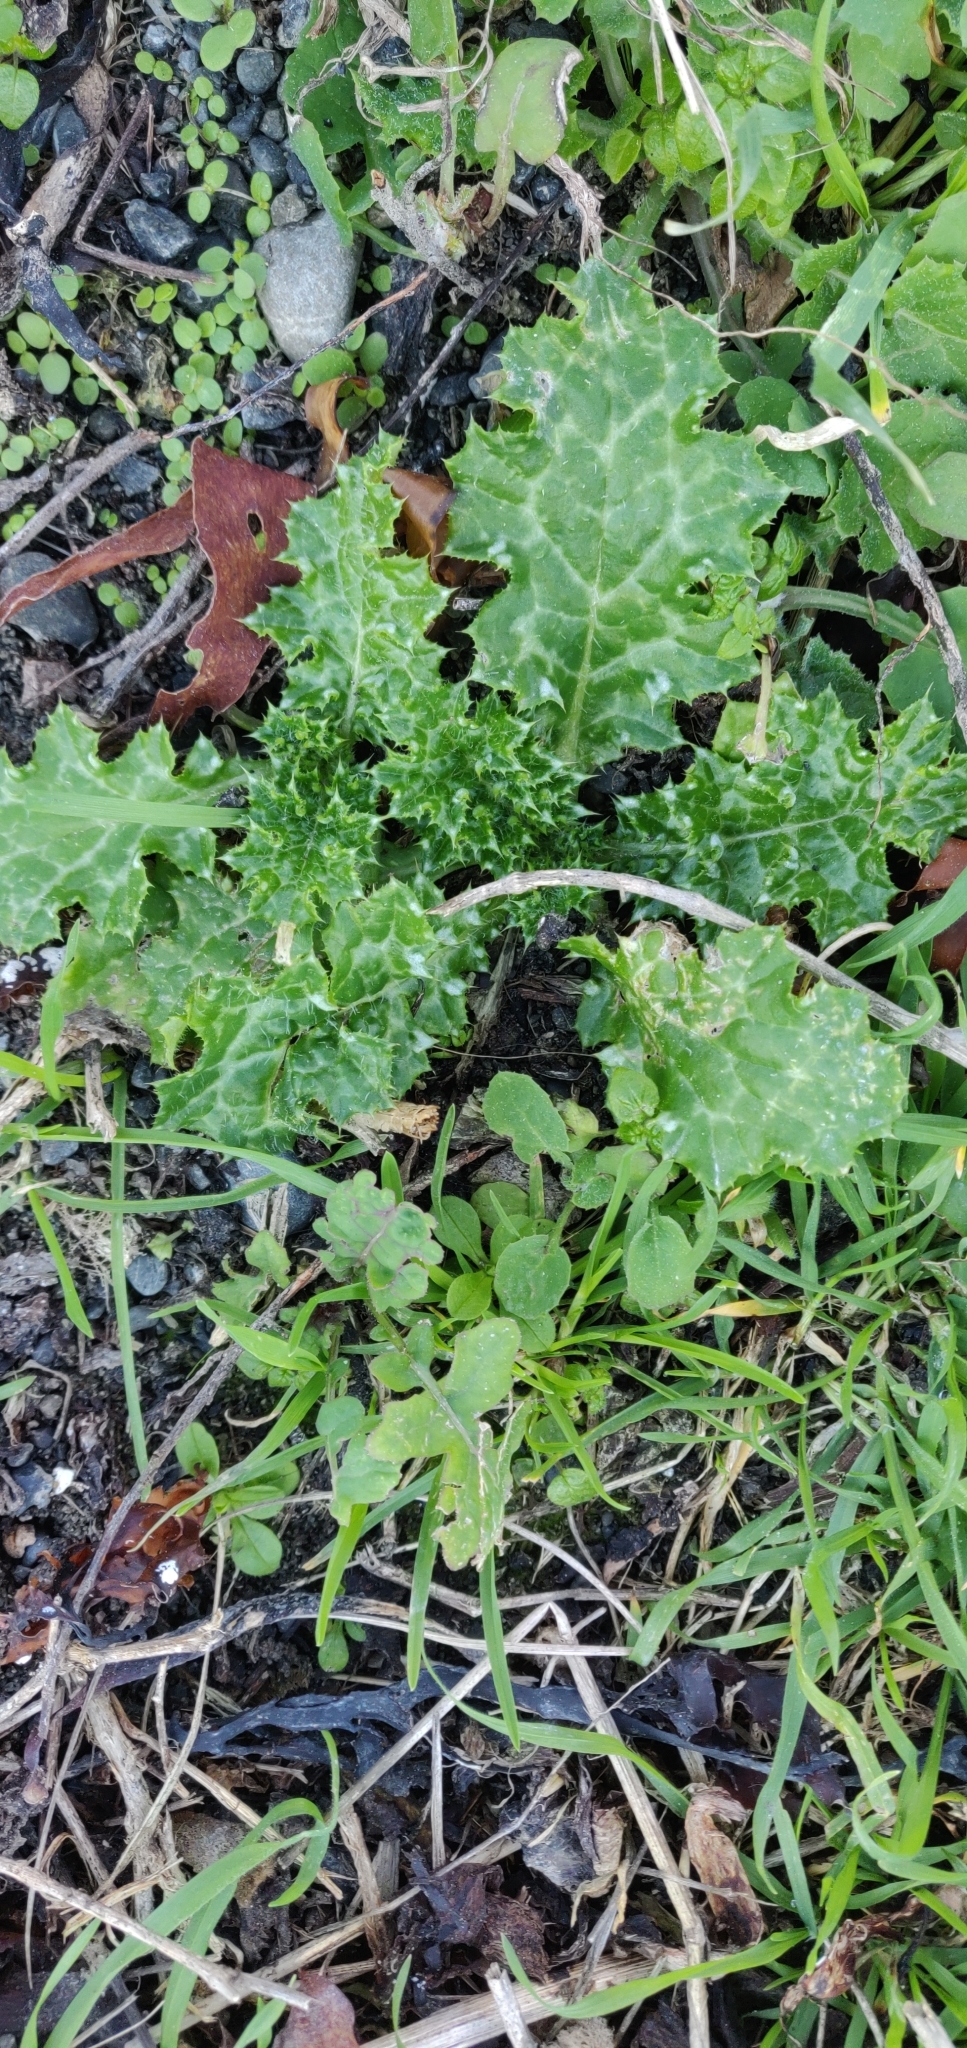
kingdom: Plantae
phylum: Tracheophyta
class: Magnoliopsida
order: Asterales
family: Asteraceae
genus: Carduus
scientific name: Carduus pycnocephalus
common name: Plymouth thistle
